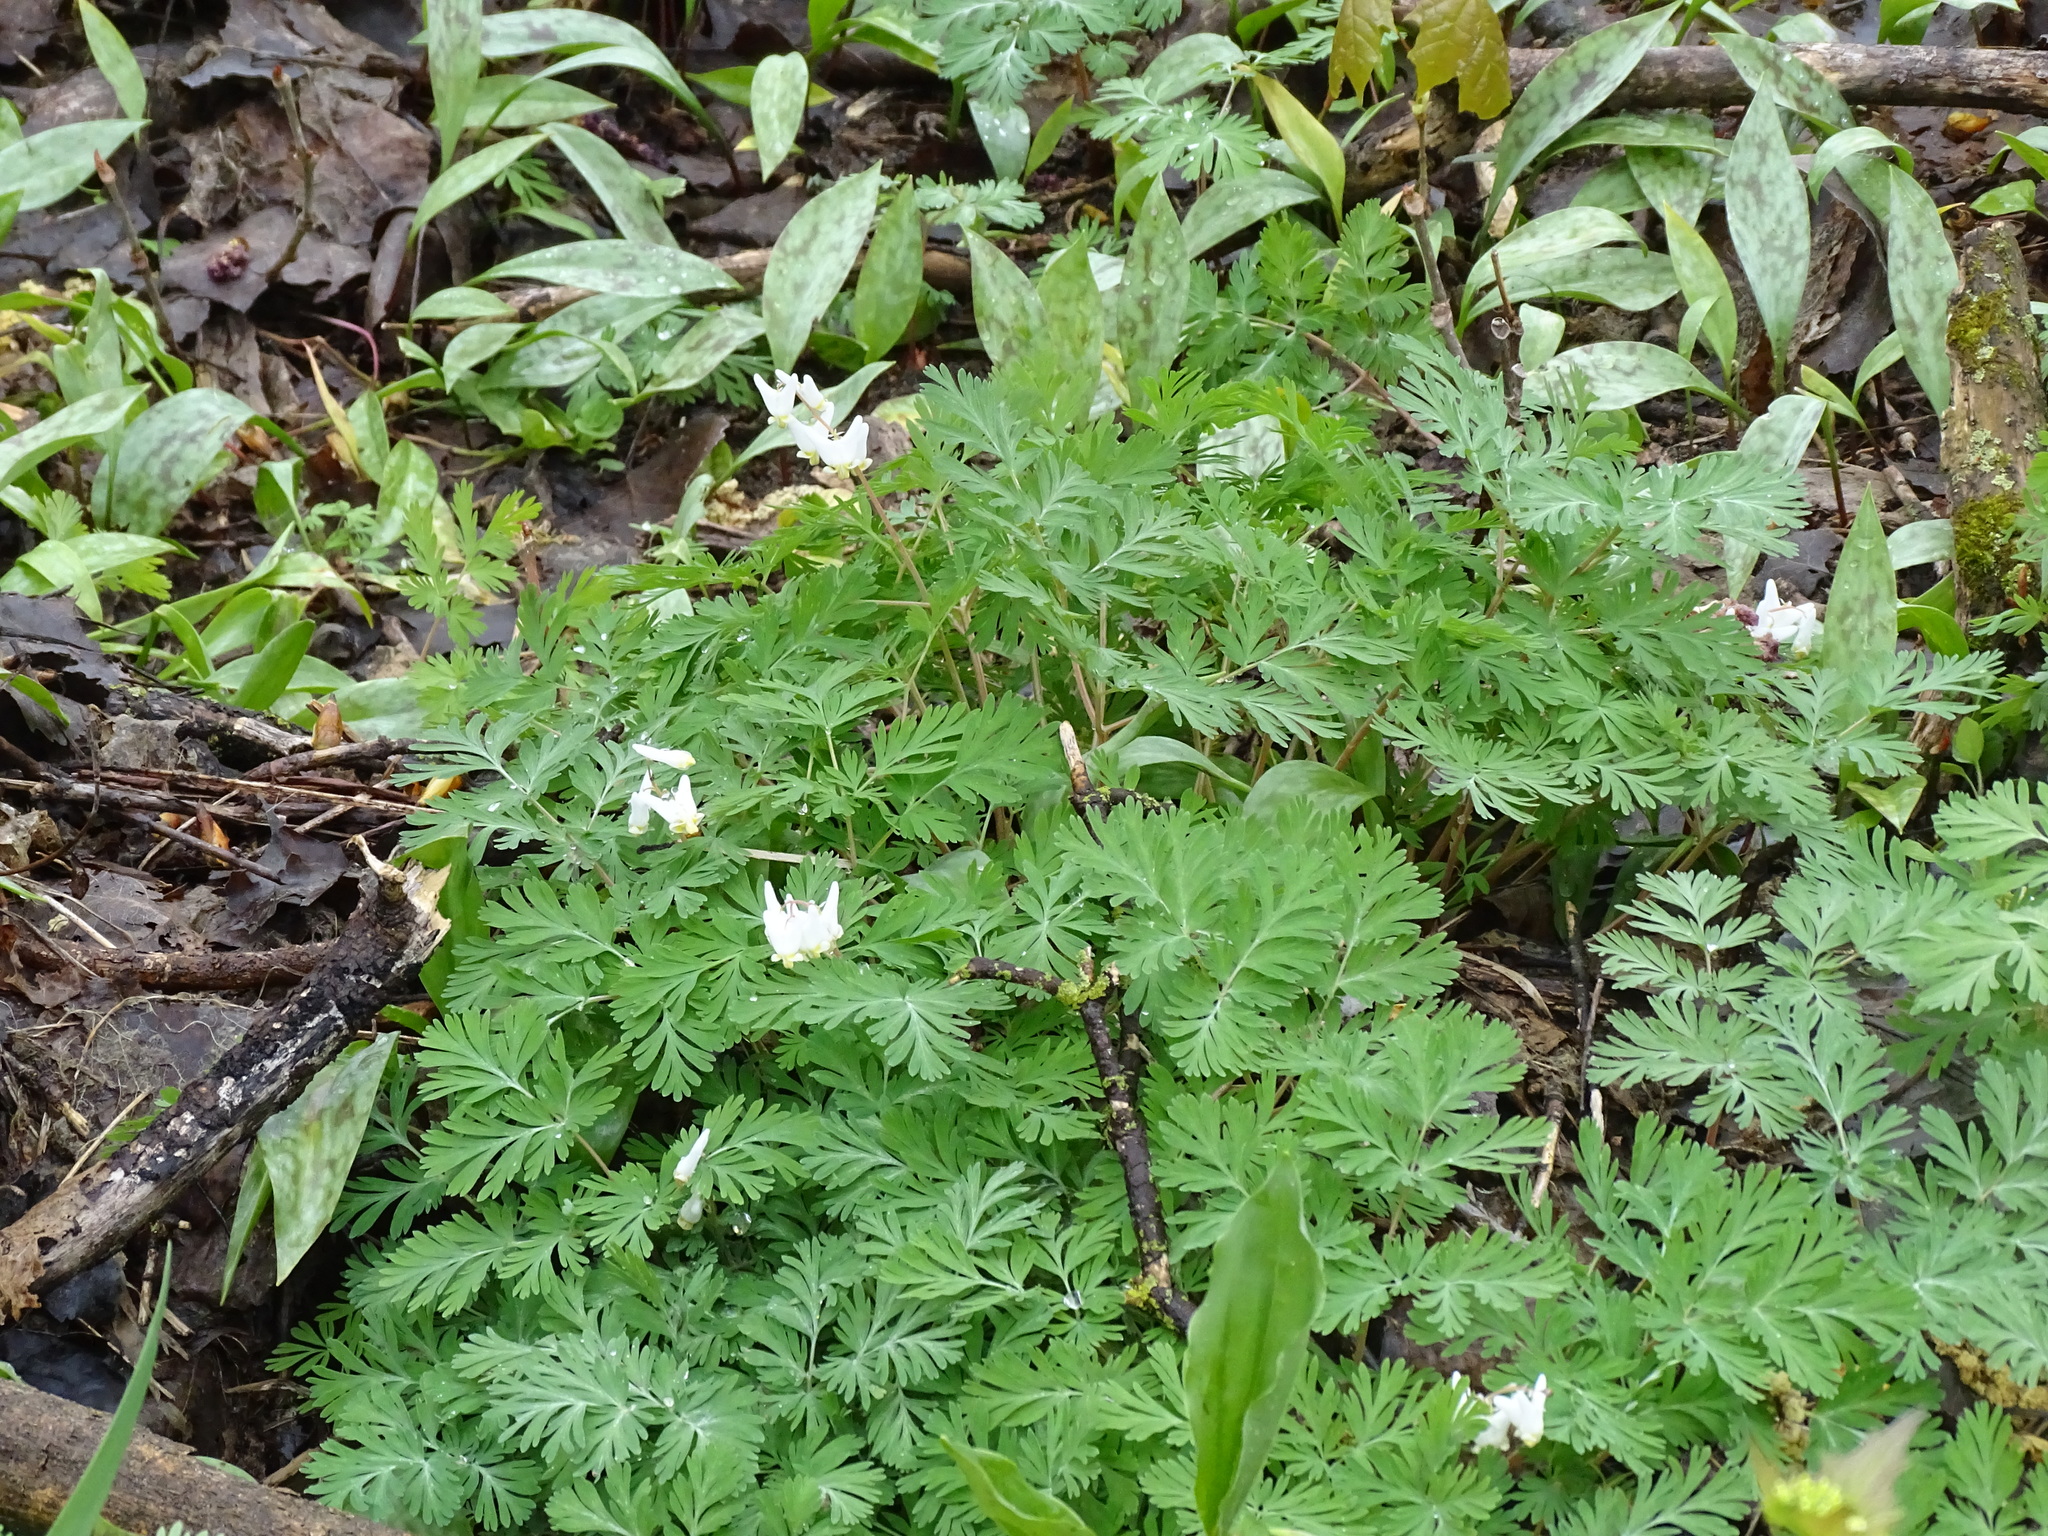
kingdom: Plantae
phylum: Tracheophyta
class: Magnoliopsida
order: Ranunculales
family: Papaveraceae
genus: Dicentra
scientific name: Dicentra cucullaria
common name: Dutchman's breeches
